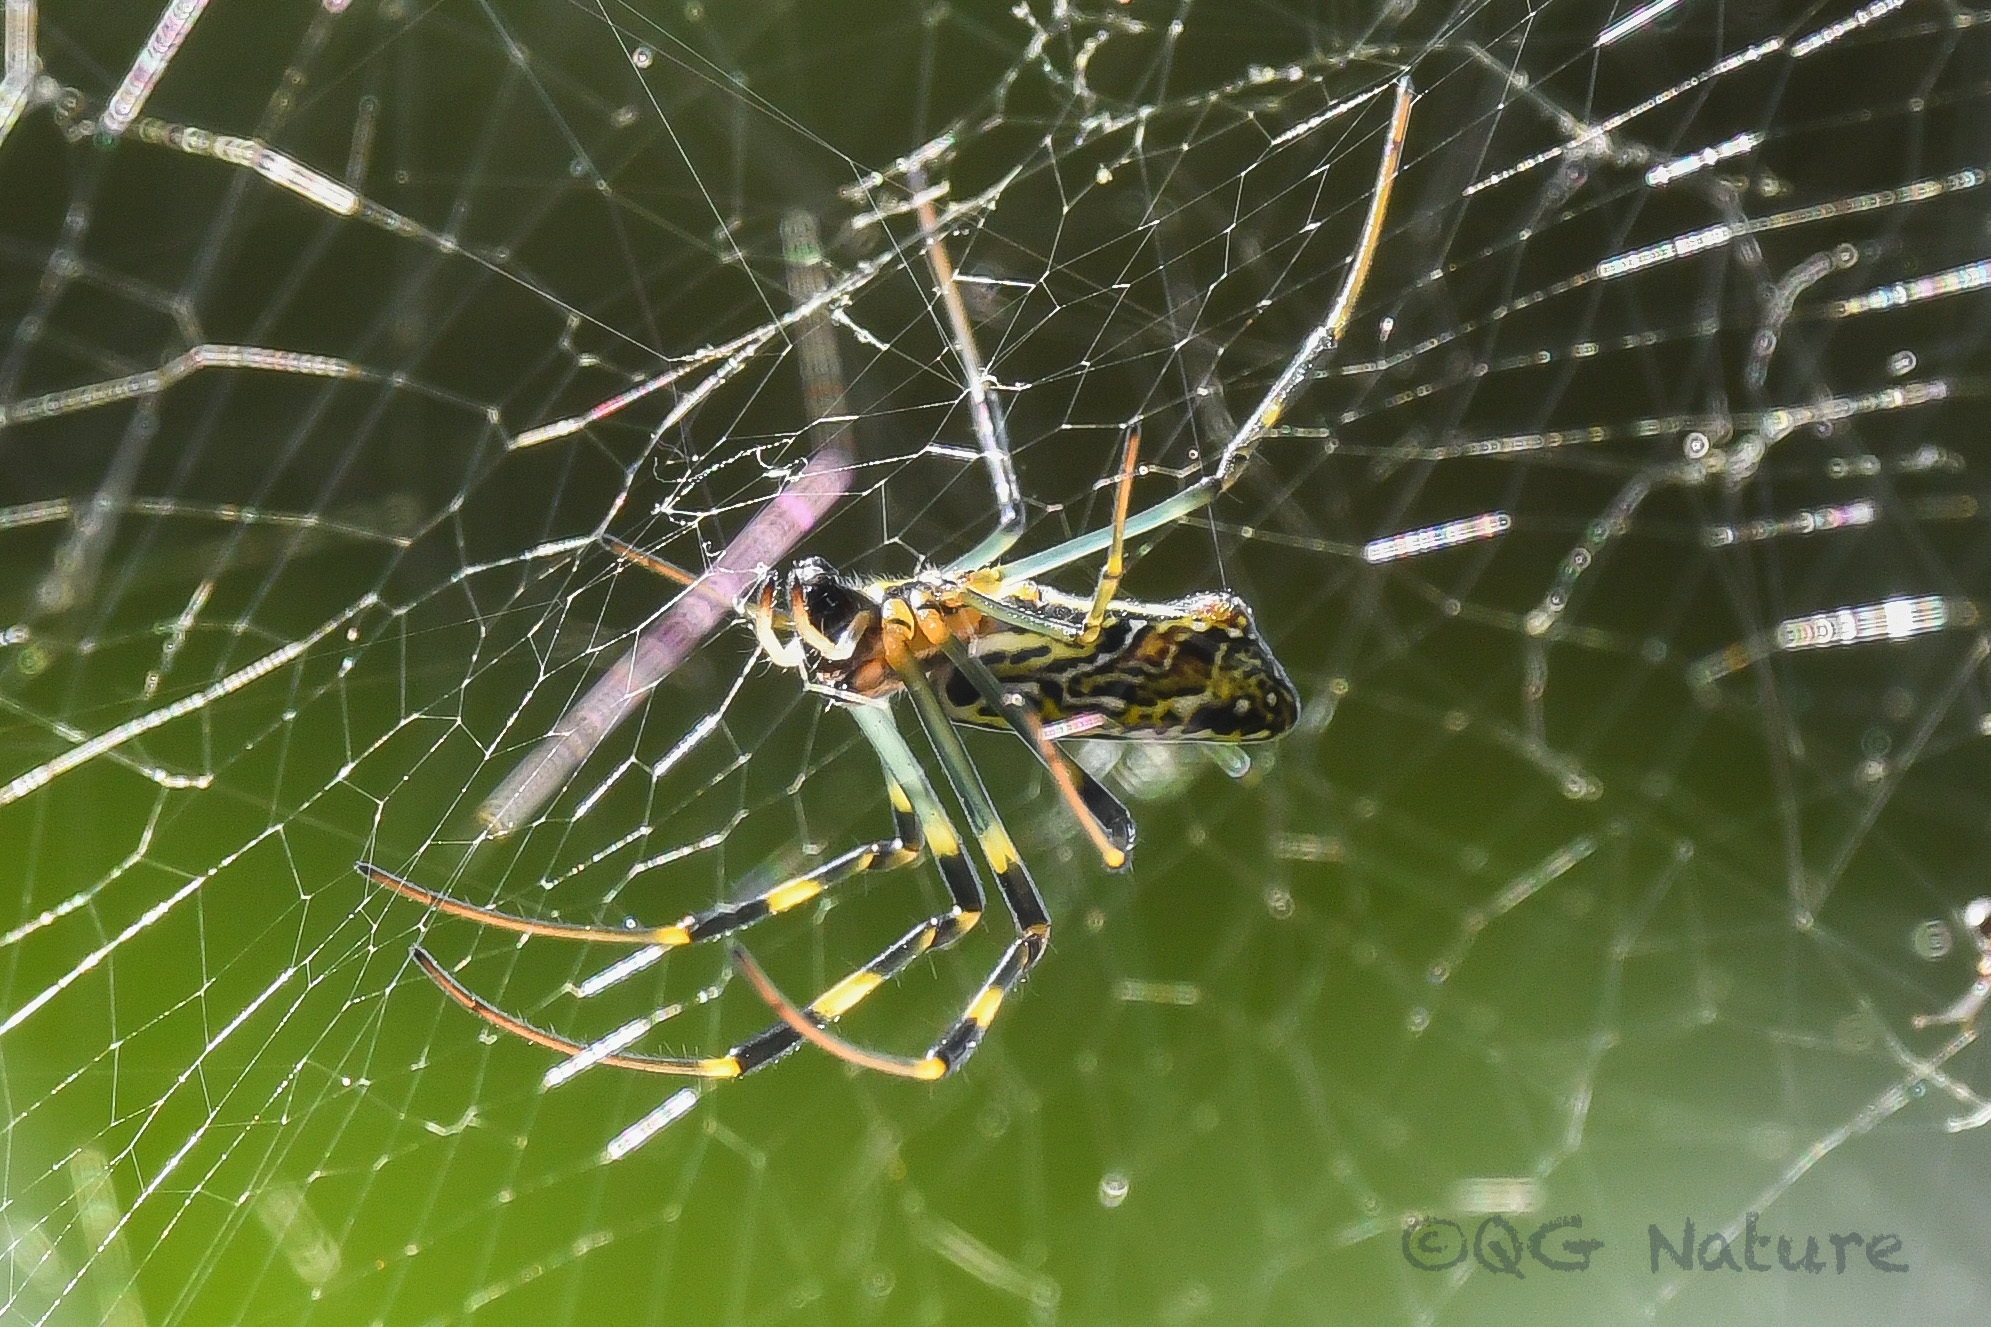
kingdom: Animalia
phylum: Arthropoda
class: Arachnida
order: Araneae
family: Araneidae
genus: Trichonephila
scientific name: Trichonephila clavata
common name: Jorō spider
